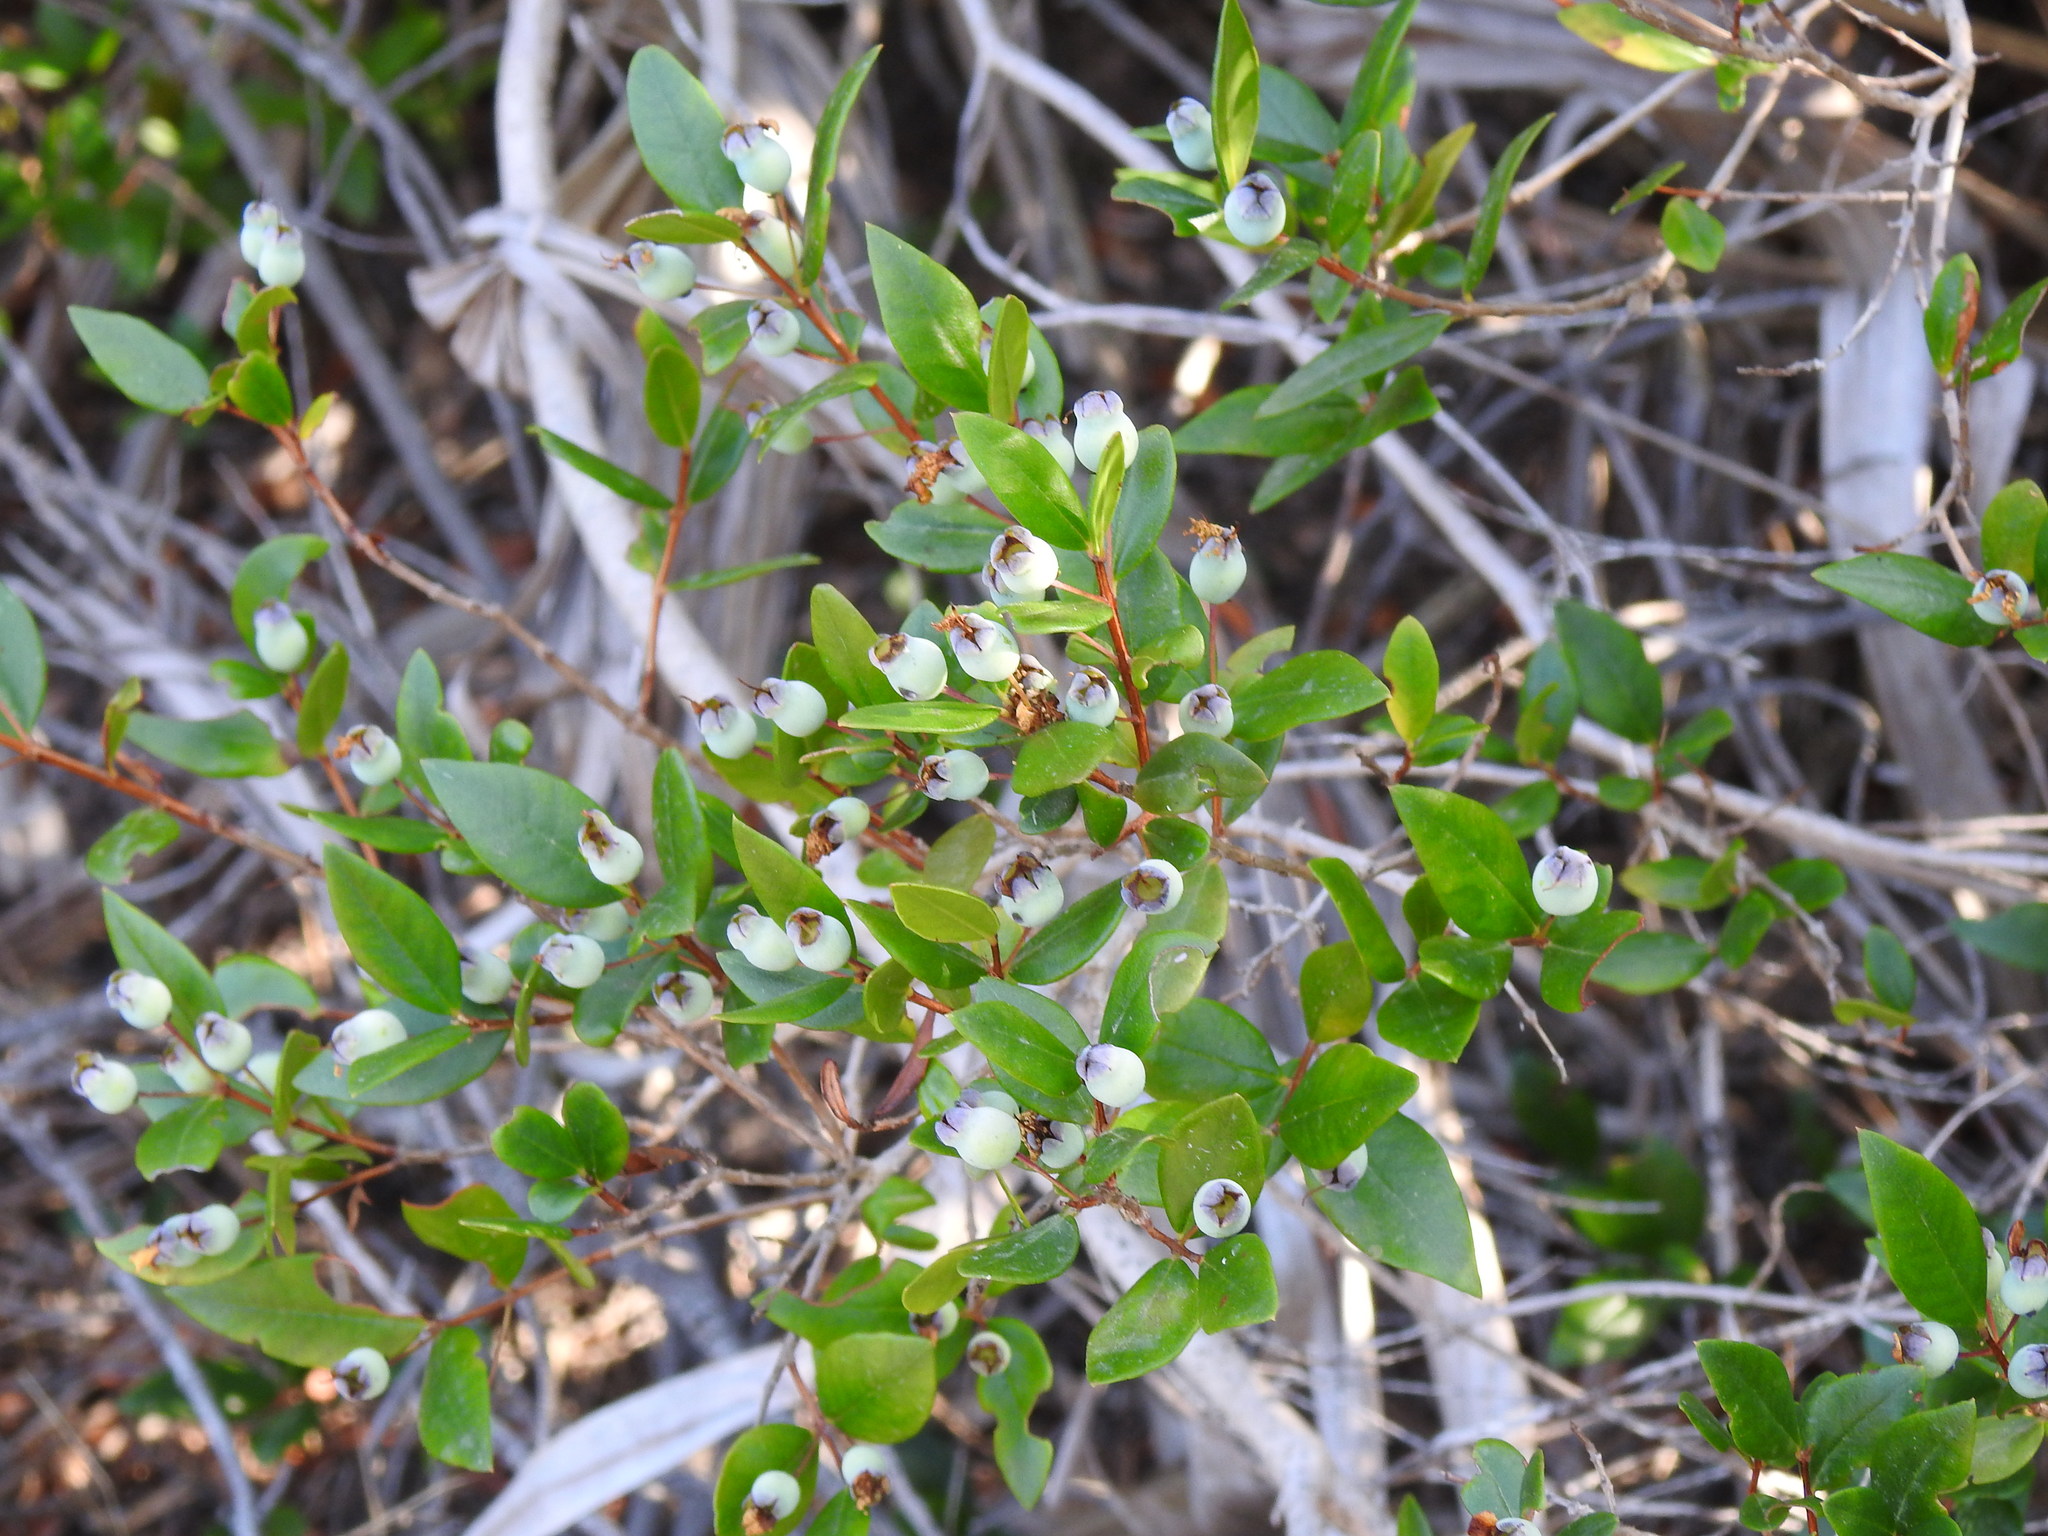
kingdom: Plantae
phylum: Tracheophyta
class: Magnoliopsida
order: Myrtales
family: Myrtaceae
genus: Myrtus
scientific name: Myrtus communis
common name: Myrtle
